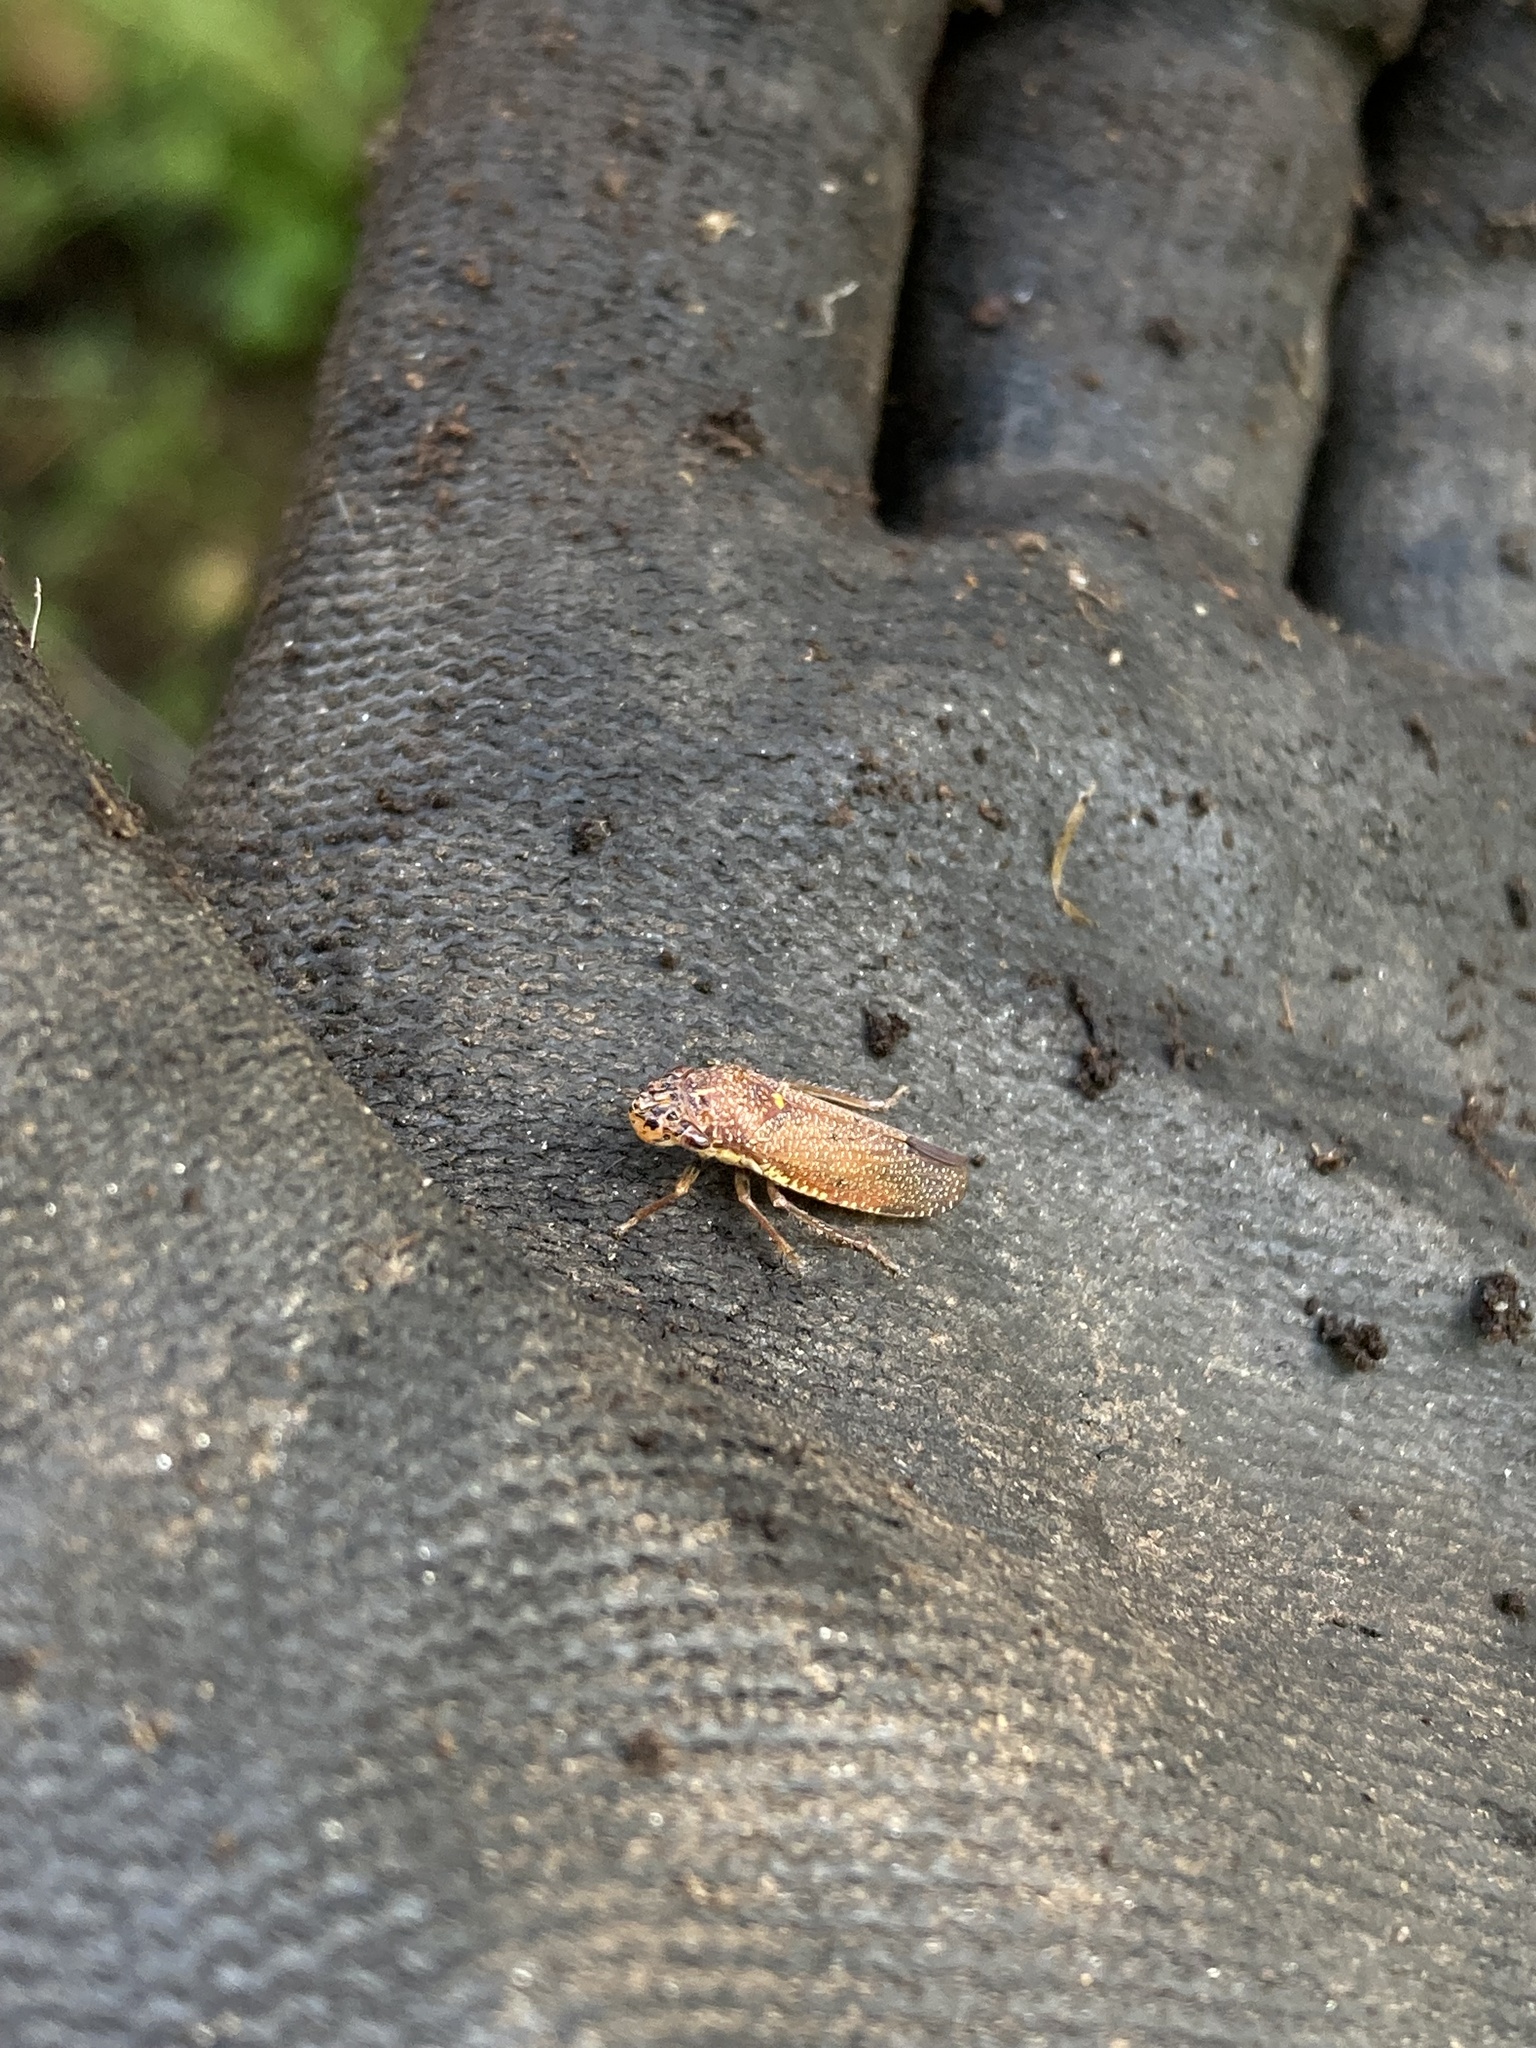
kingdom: Animalia
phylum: Arthropoda
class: Insecta
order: Hemiptera
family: Cicadellidae
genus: Paraulacizes
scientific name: Paraulacizes irrorata
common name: Speckled sharpshooter
